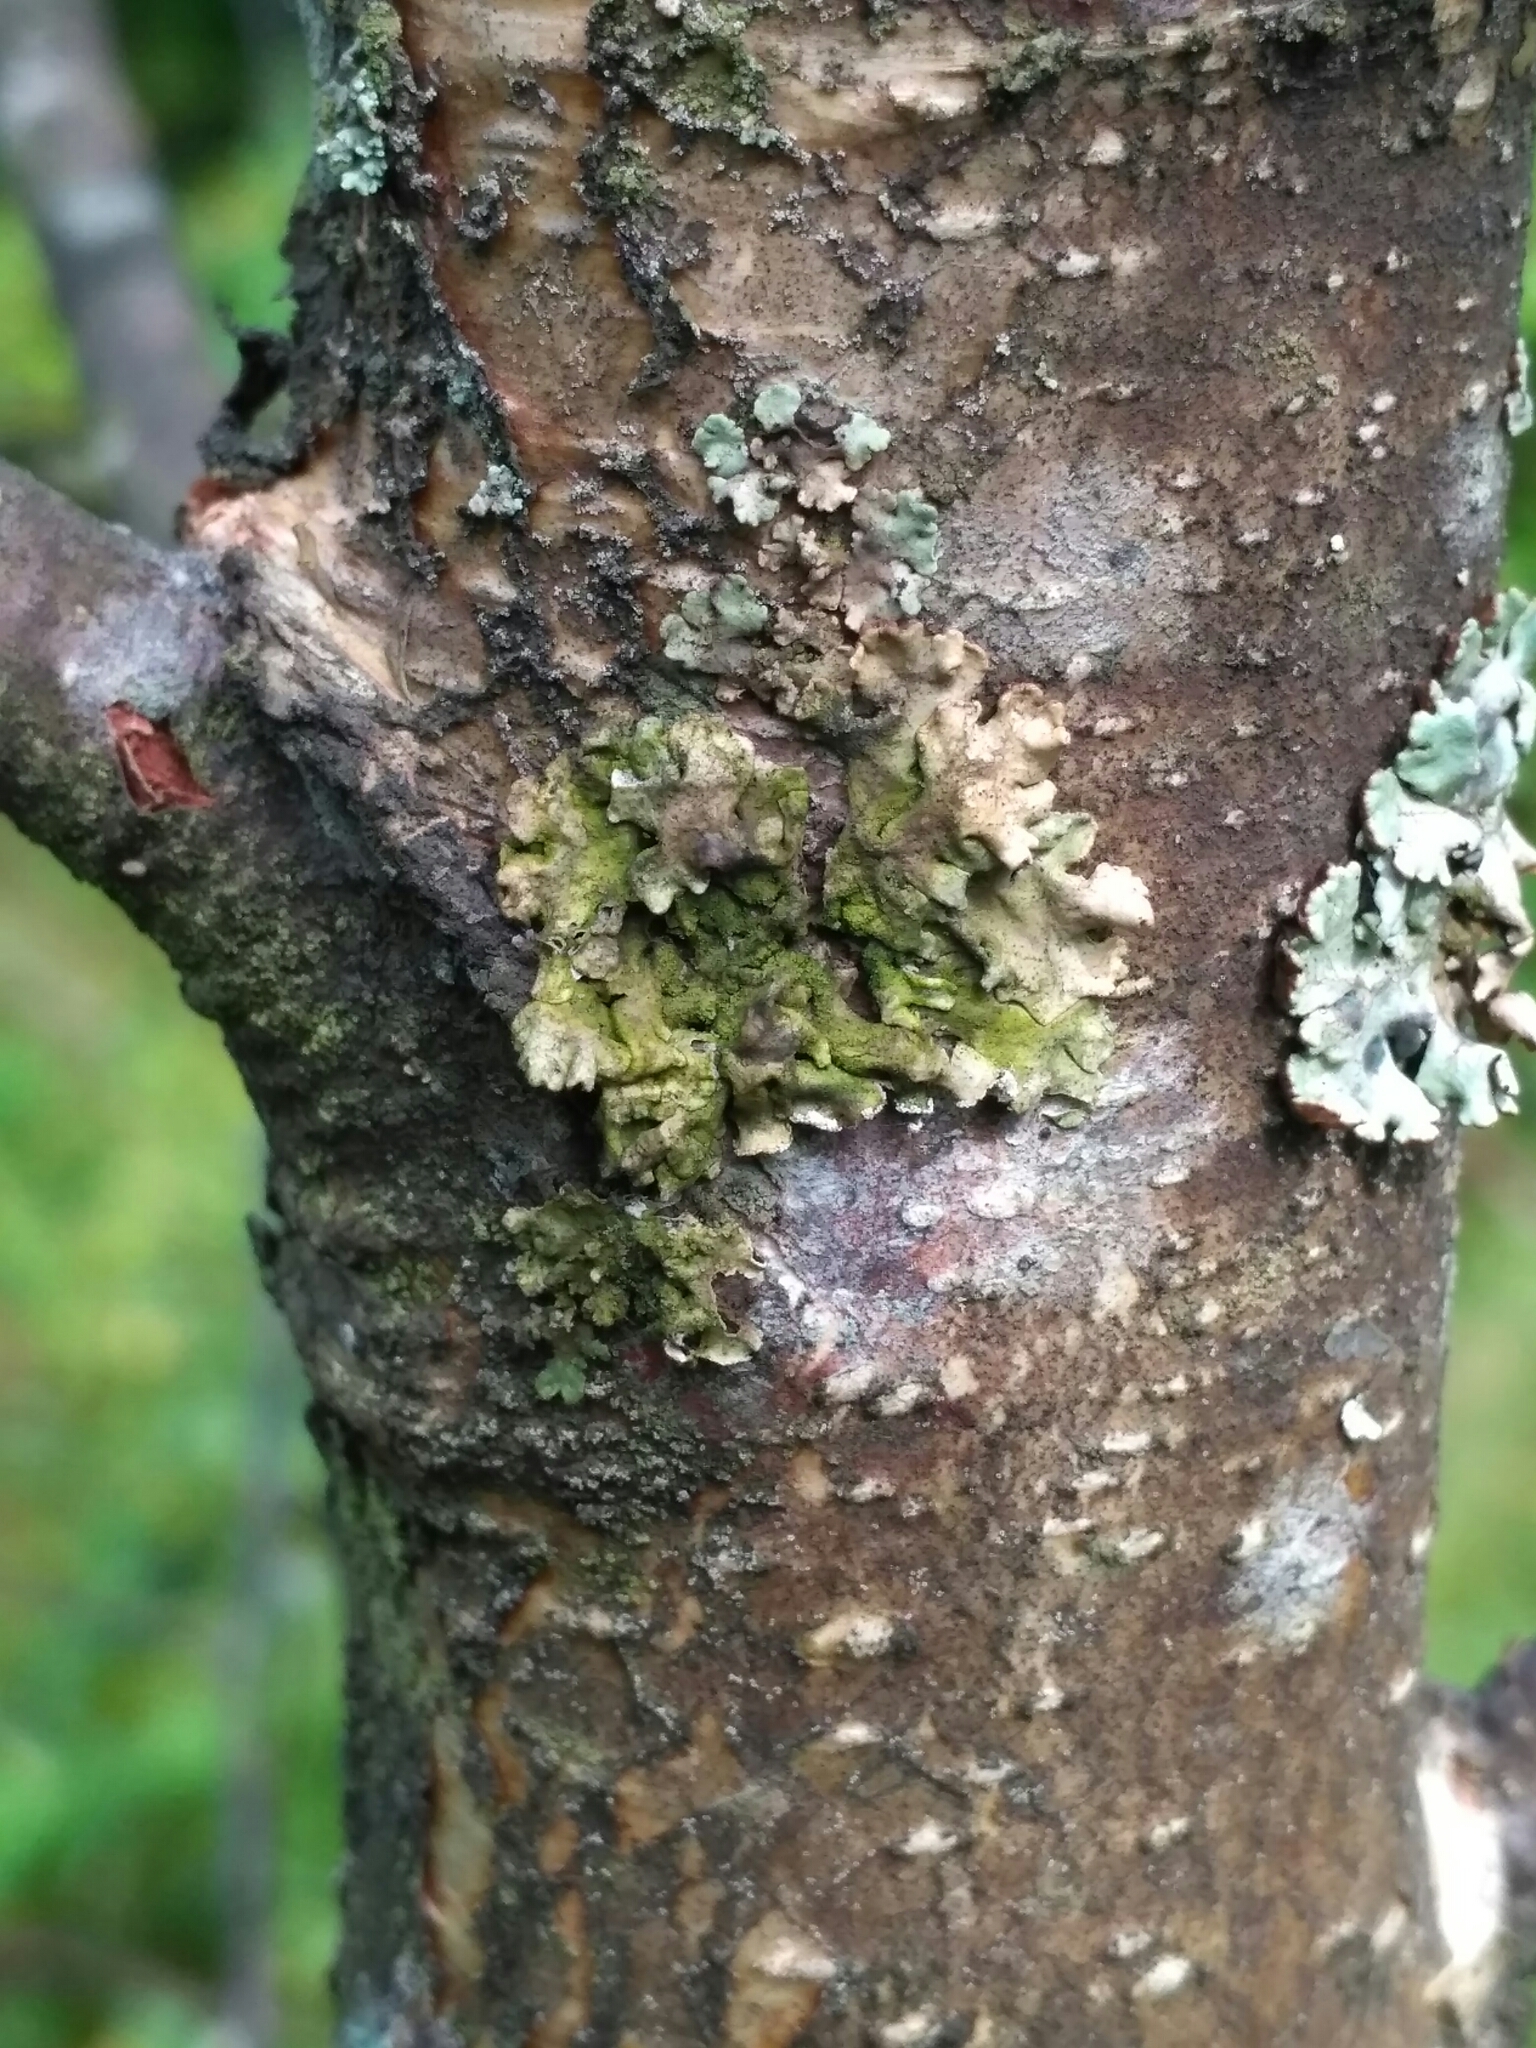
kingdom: Fungi
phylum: Ascomycota
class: Lecanoromycetes
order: Lecanorales
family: Parmeliaceae
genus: Hypogymnia
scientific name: Hypogymnia physodes
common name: Dark crottle
